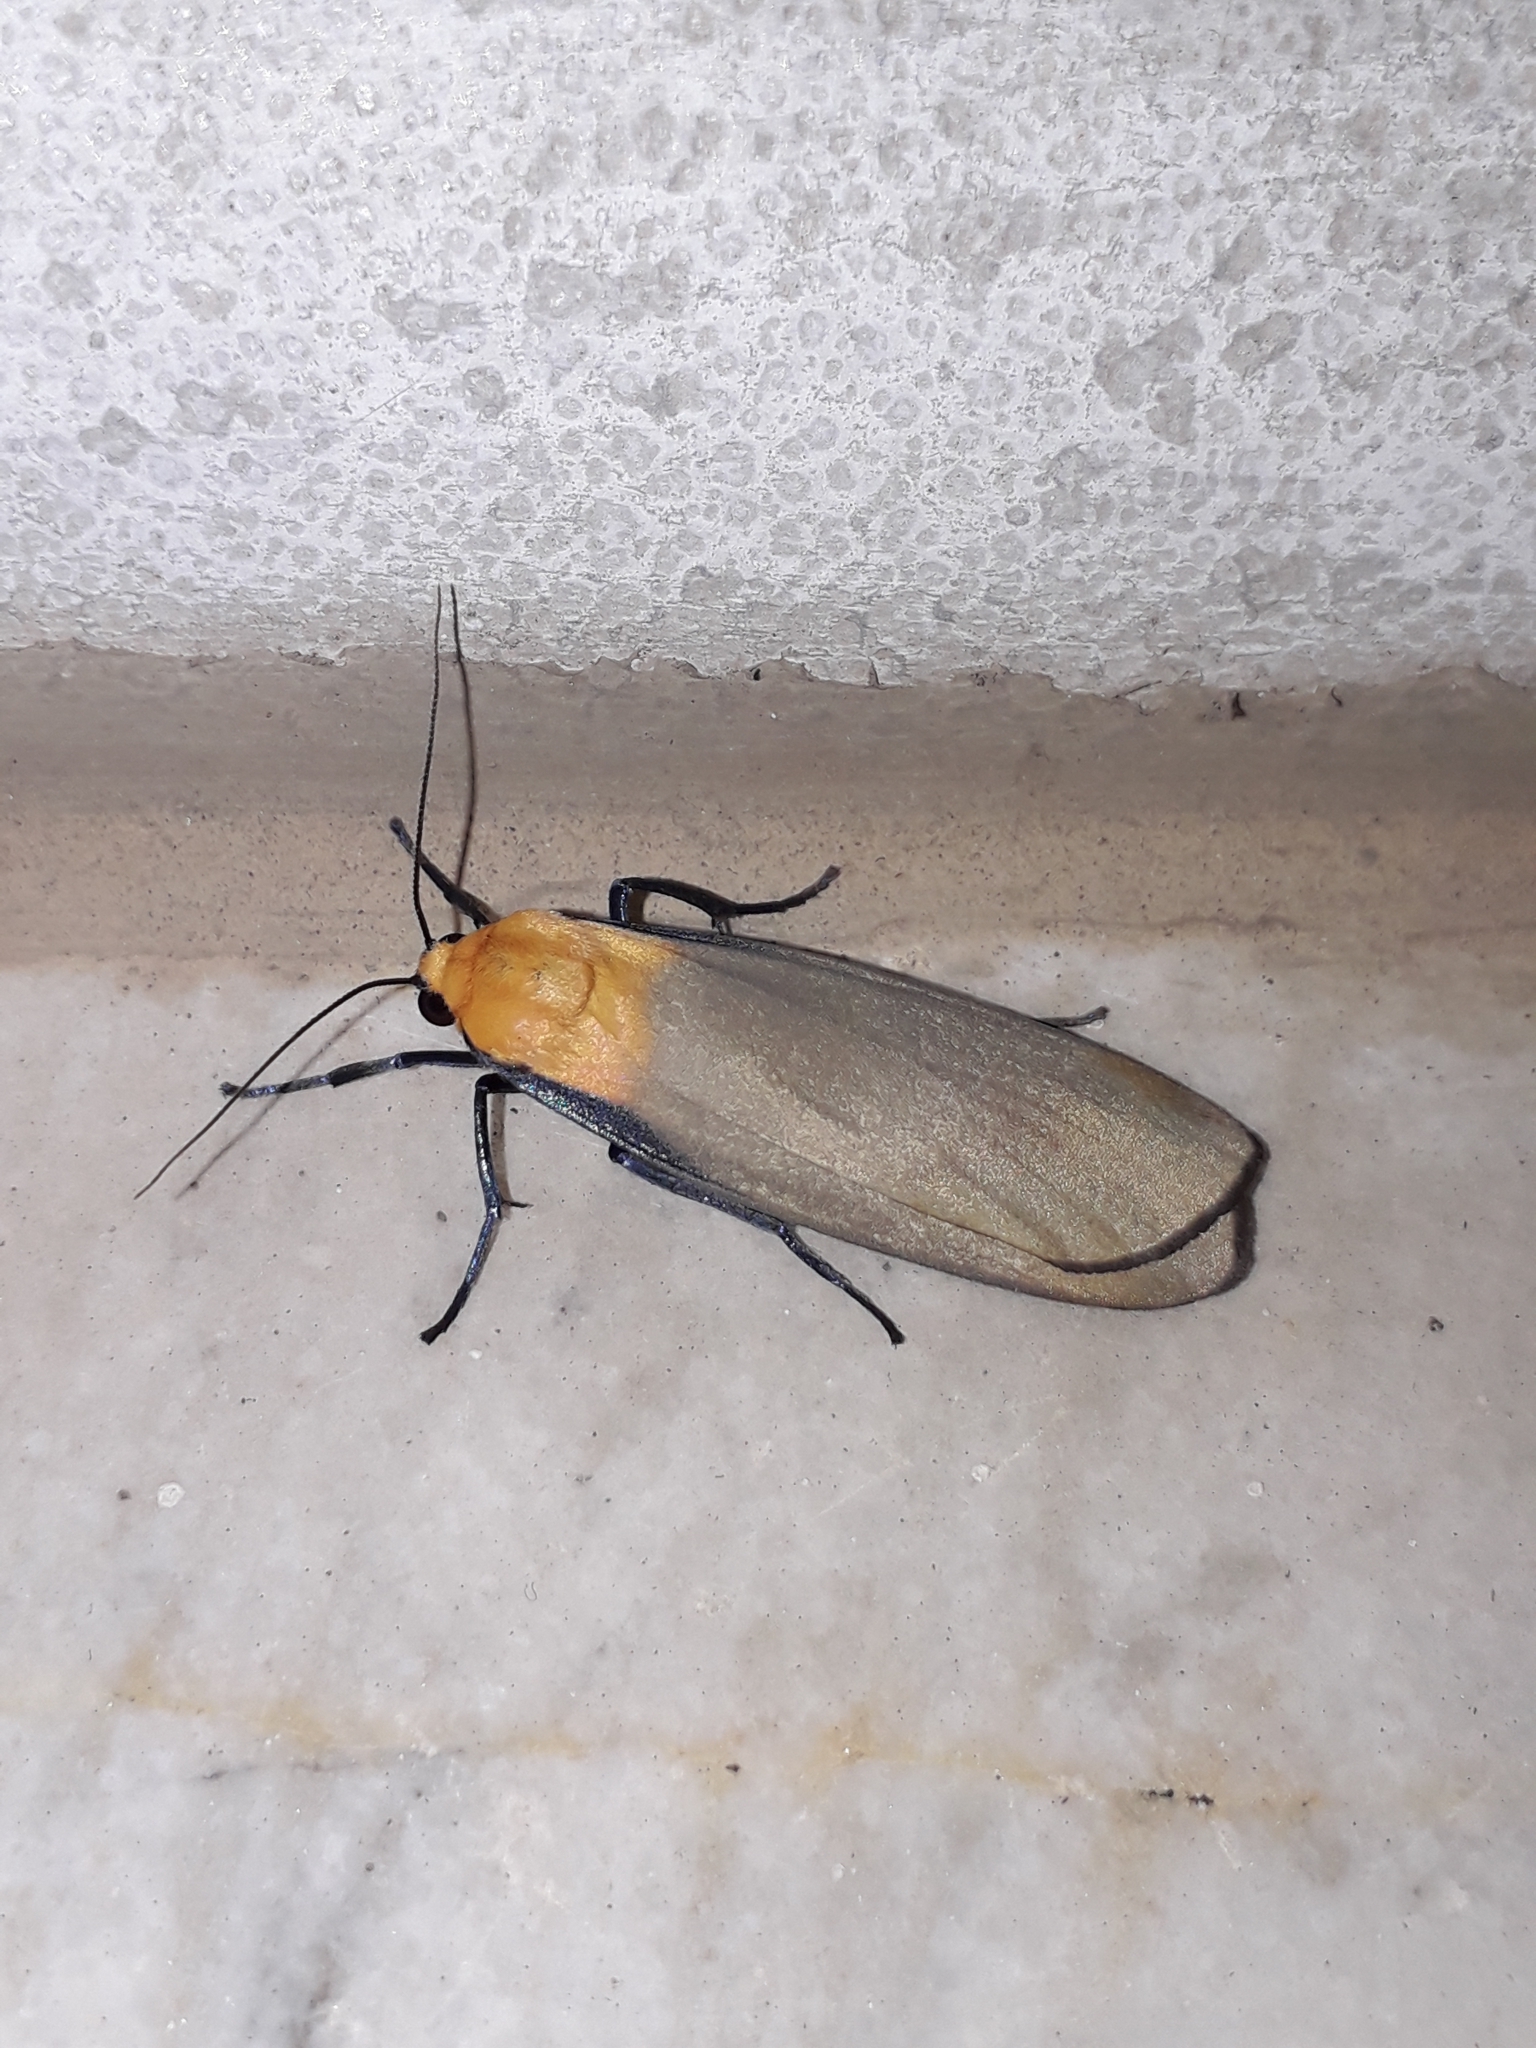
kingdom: Animalia
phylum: Arthropoda
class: Insecta
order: Lepidoptera
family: Erebidae
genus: Lithosia
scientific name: Lithosia quadra
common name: Four-spotted footman
